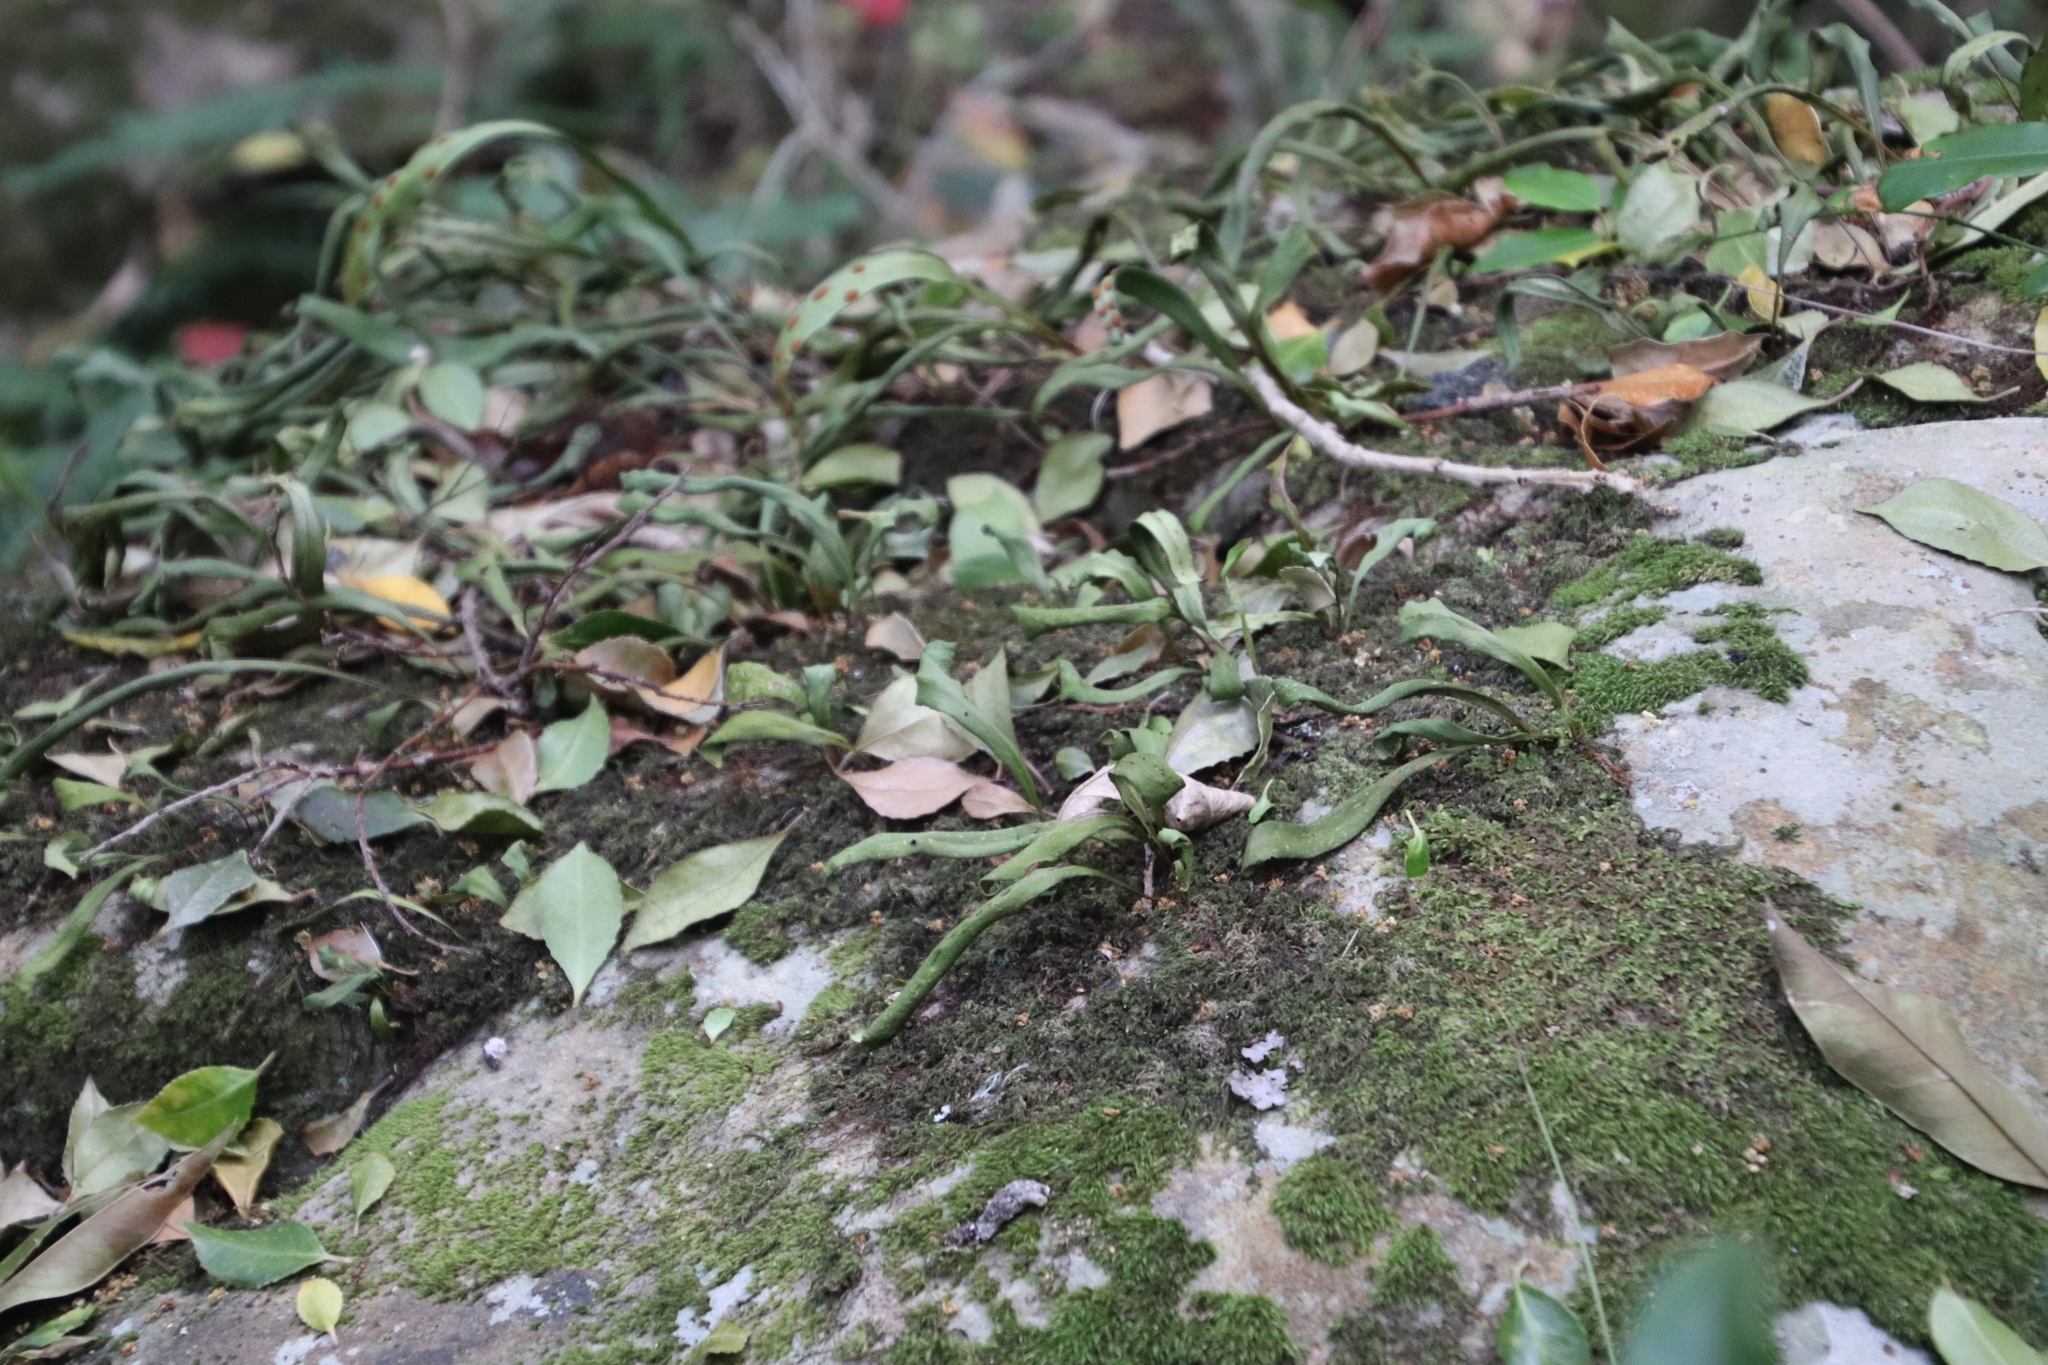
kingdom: Plantae
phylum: Tracheophyta
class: Polypodiopsida
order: Polypodiales
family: Polypodiaceae
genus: Pleopeltis
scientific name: Pleopeltis macrocarpa
